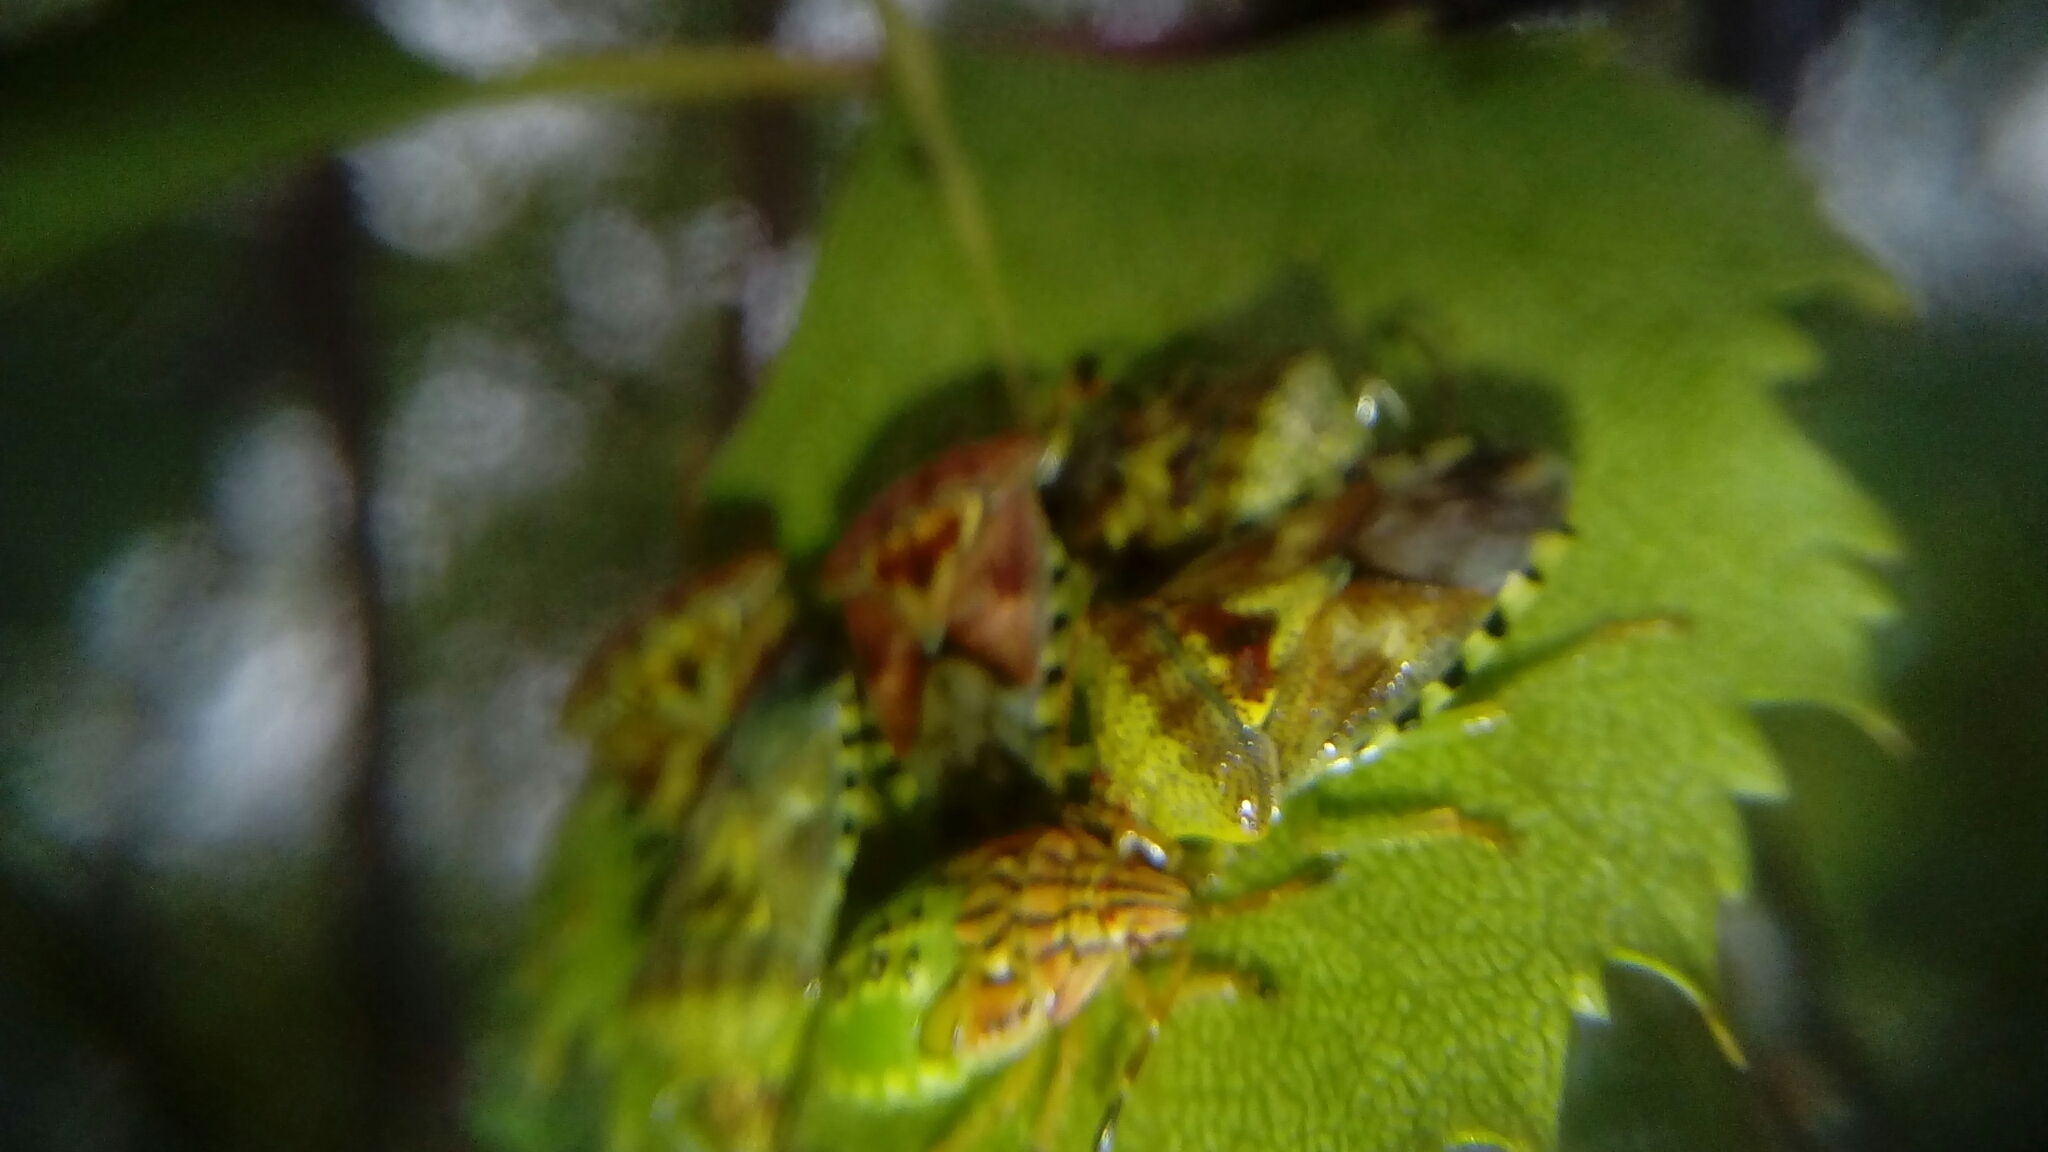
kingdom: Animalia
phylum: Arthropoda
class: Insecta
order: Hemiptera
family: Acanthosomatidae
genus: Elasmucha
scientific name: Elasmucha grisea
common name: Parent bug
